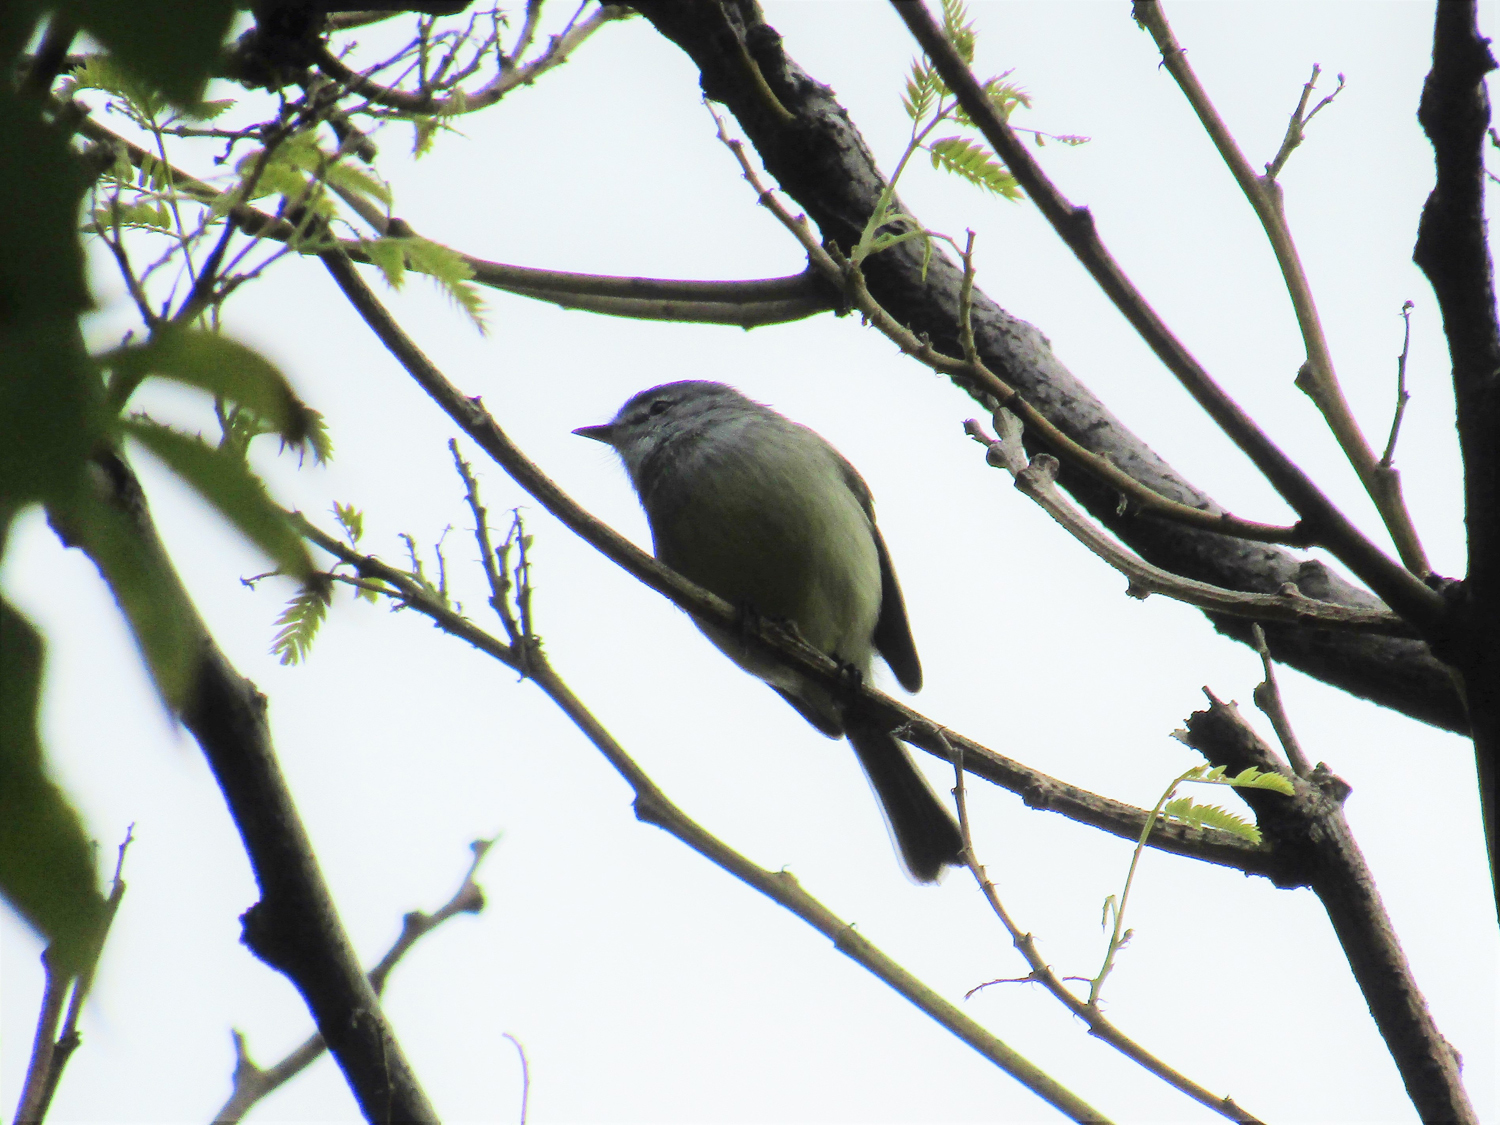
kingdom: Animalia
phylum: Chordata
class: Aves
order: Passeriformes
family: Tyrannidae
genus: Serpophaga
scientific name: Serpophaga subcristata
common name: White-crested tyrannulet
